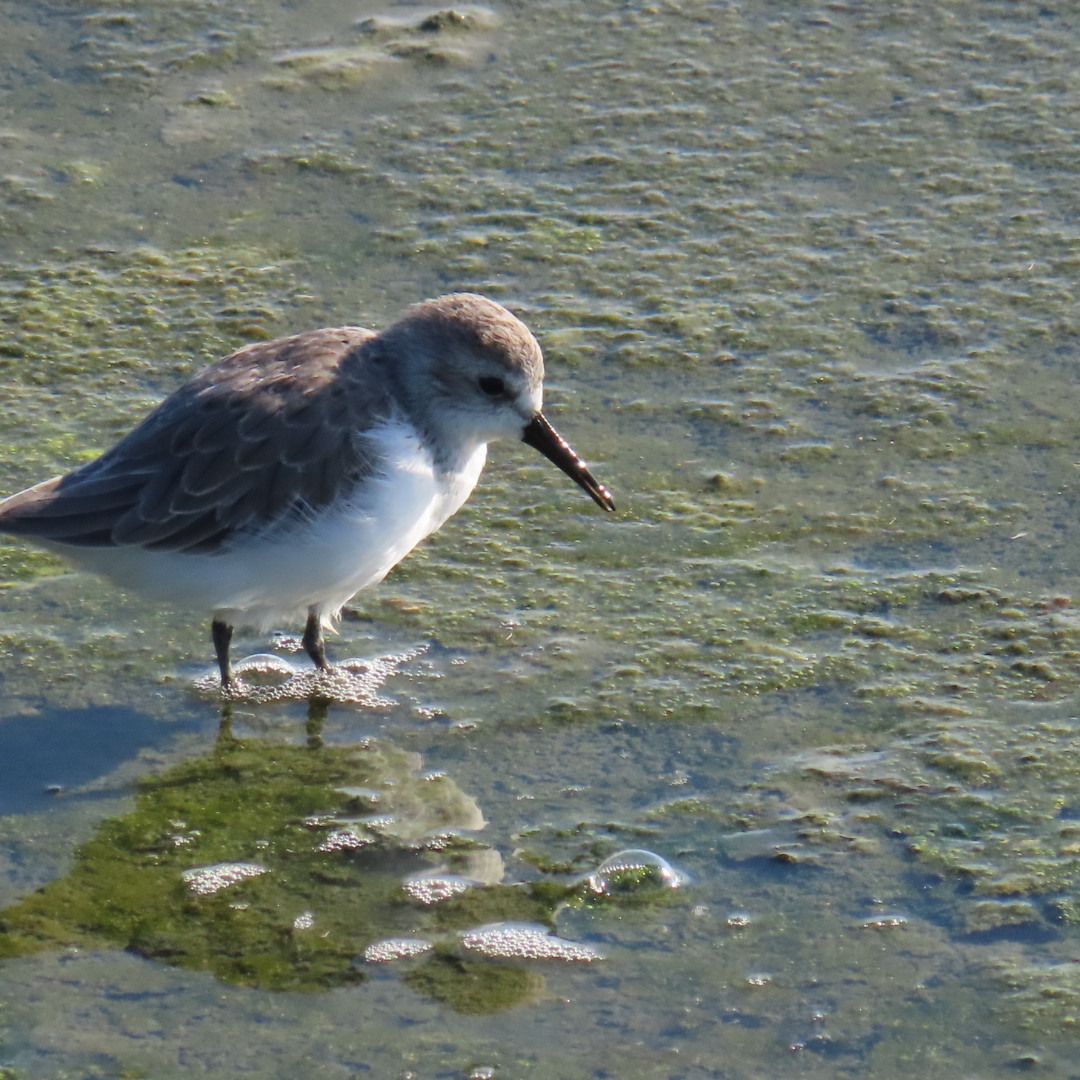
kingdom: Animalia
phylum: Chordata
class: Aves
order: Charadriiformes
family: Scolopacidae
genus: Calidris
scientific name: Calidris mauri
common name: Western sandpiper
